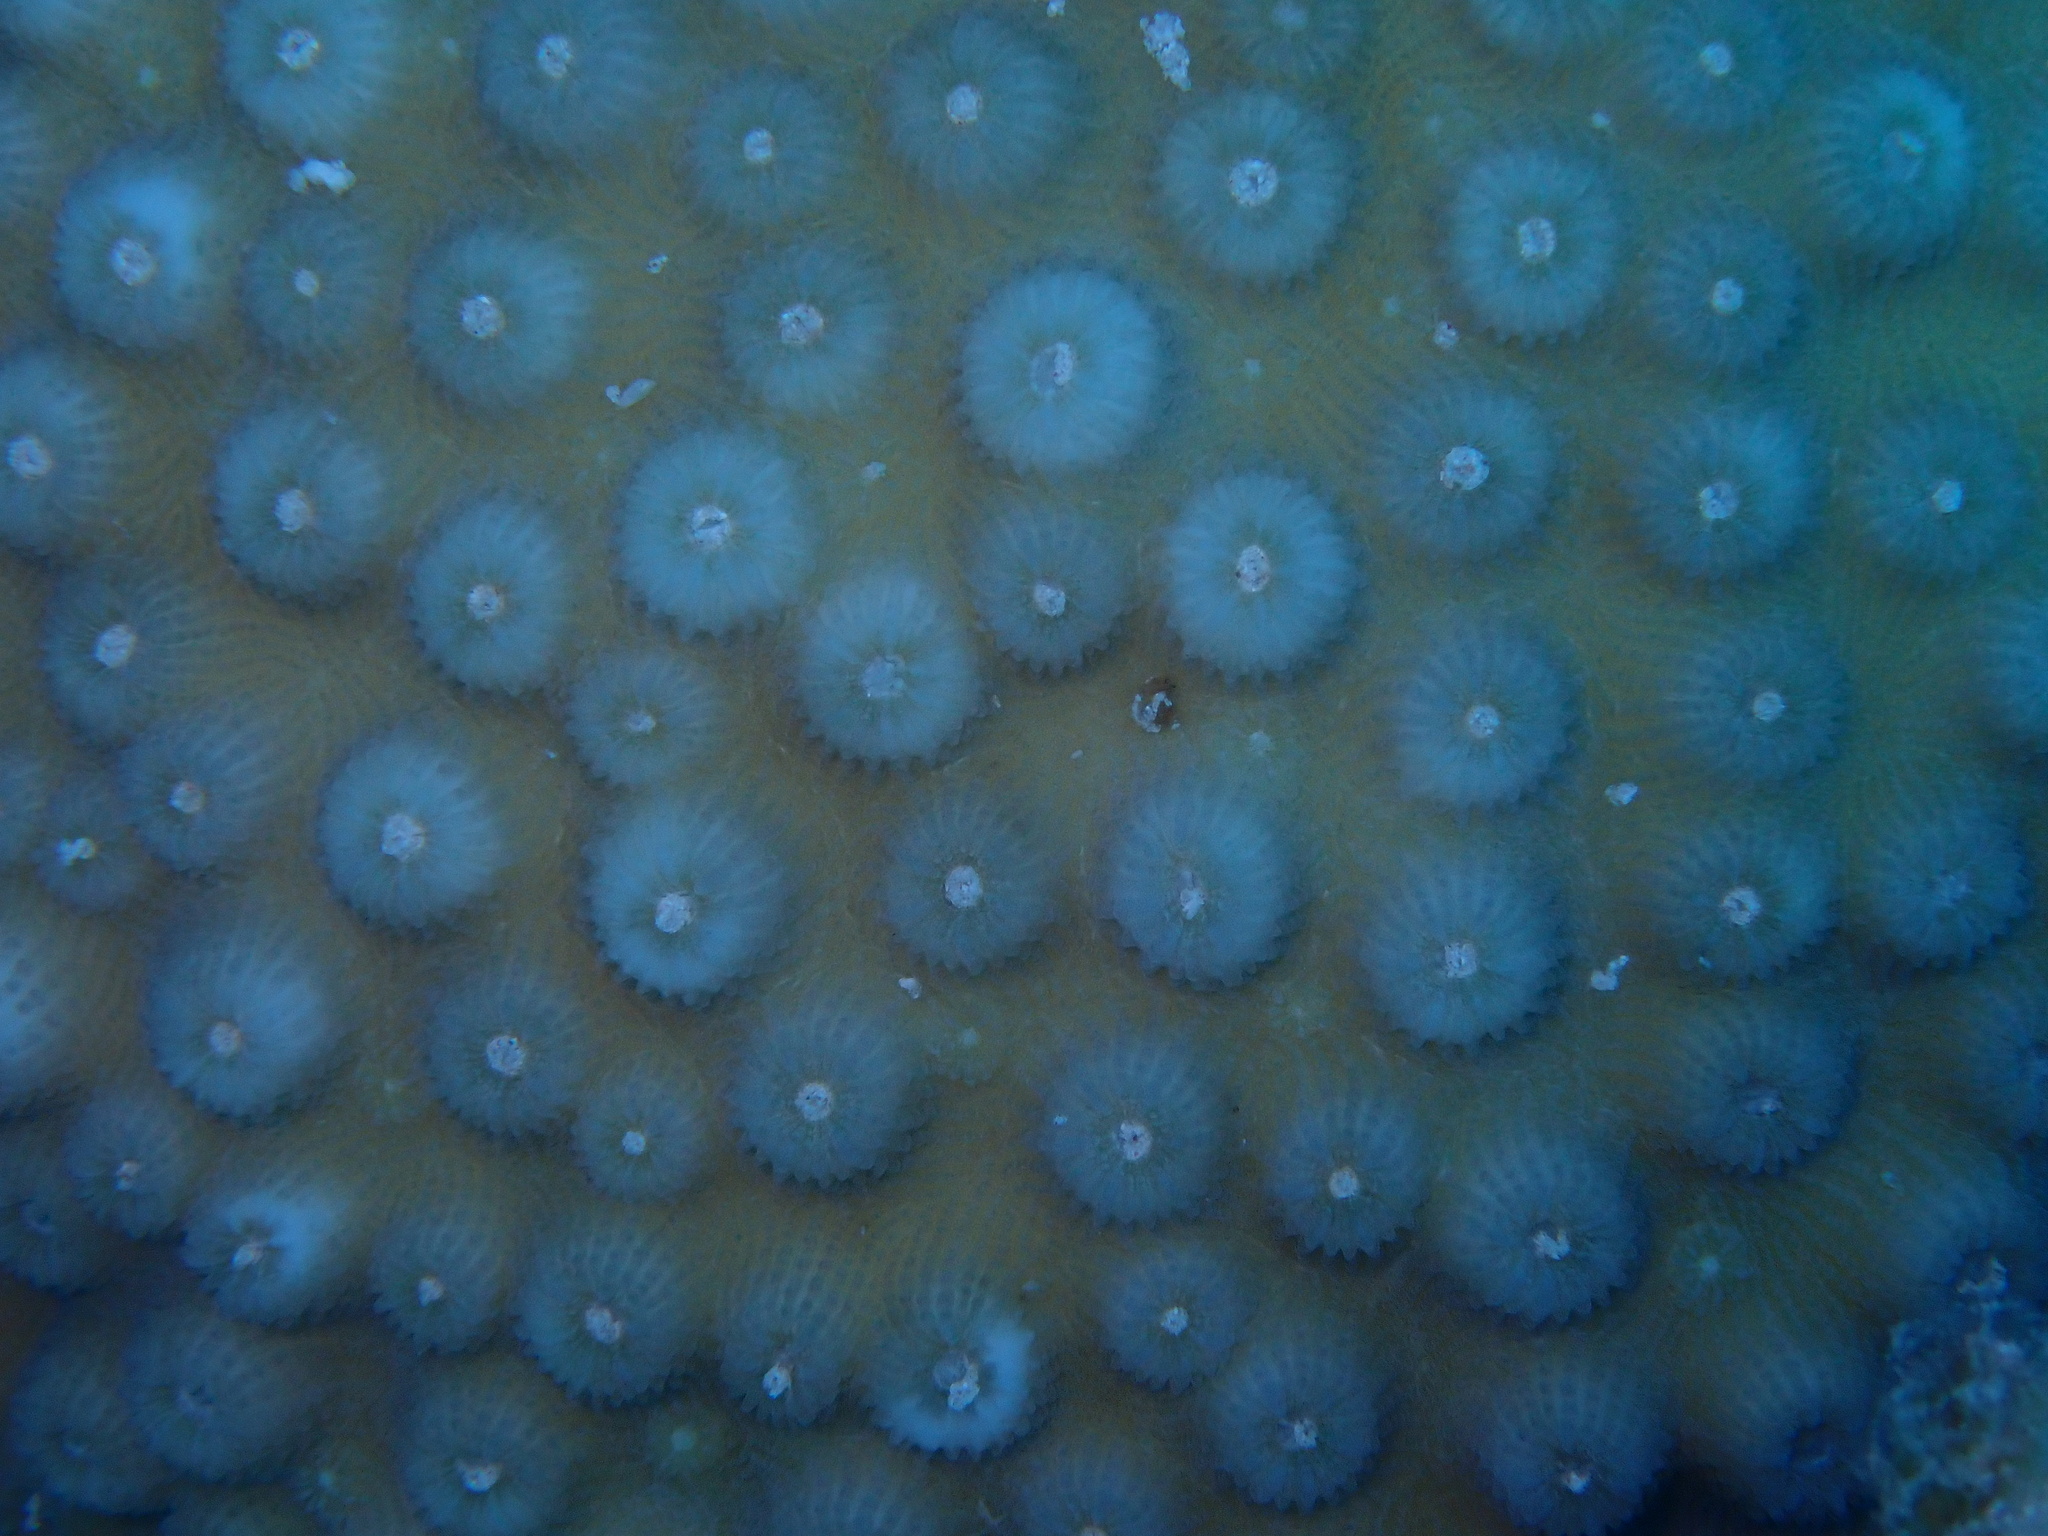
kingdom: Animalia
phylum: Cnidaria
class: Anthozoa
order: Scleractinia
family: Merulinidae
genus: Echinopora
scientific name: Echinopora forskaliana
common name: Hedgehog coral
